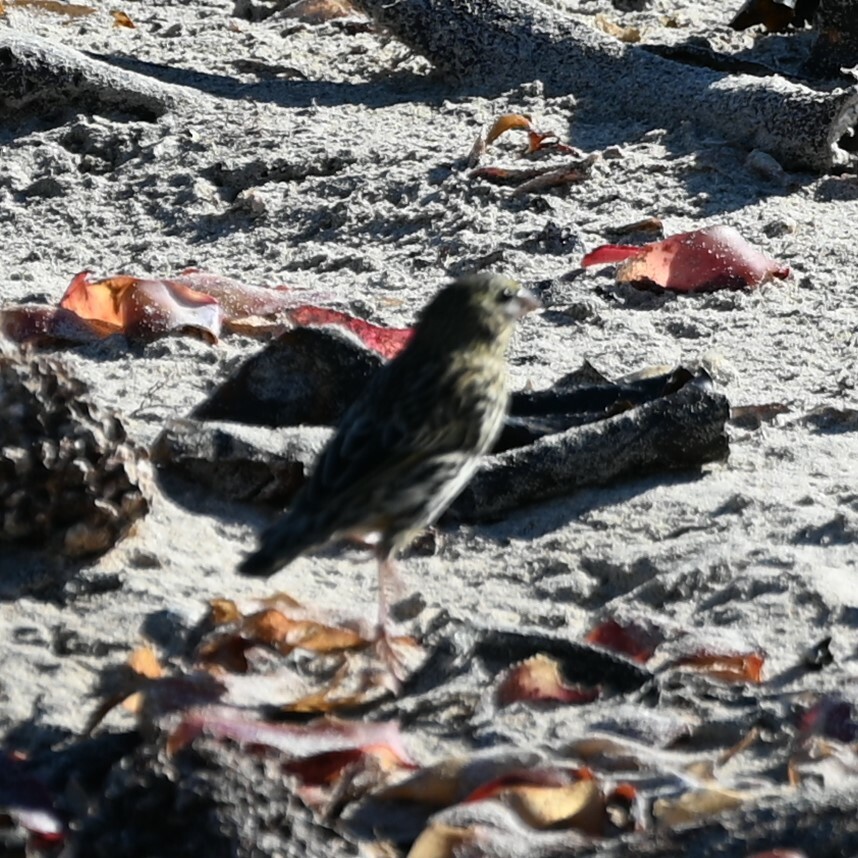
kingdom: Animalia
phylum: Chordata
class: Aves
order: Passeriformes
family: Ploceidae
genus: Euplectes
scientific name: Euplectes capensis
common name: Yellow bishop
